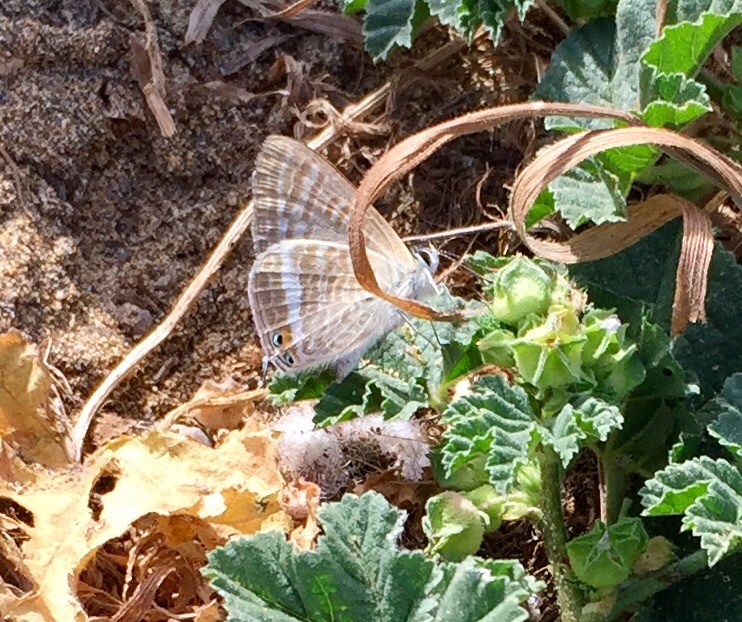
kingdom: Animalia
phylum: Arthropoda
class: Insecta
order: Lepidoptera
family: Lycaenidae
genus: Lampides
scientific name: Lampides boeticus
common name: Long-tailed blue
